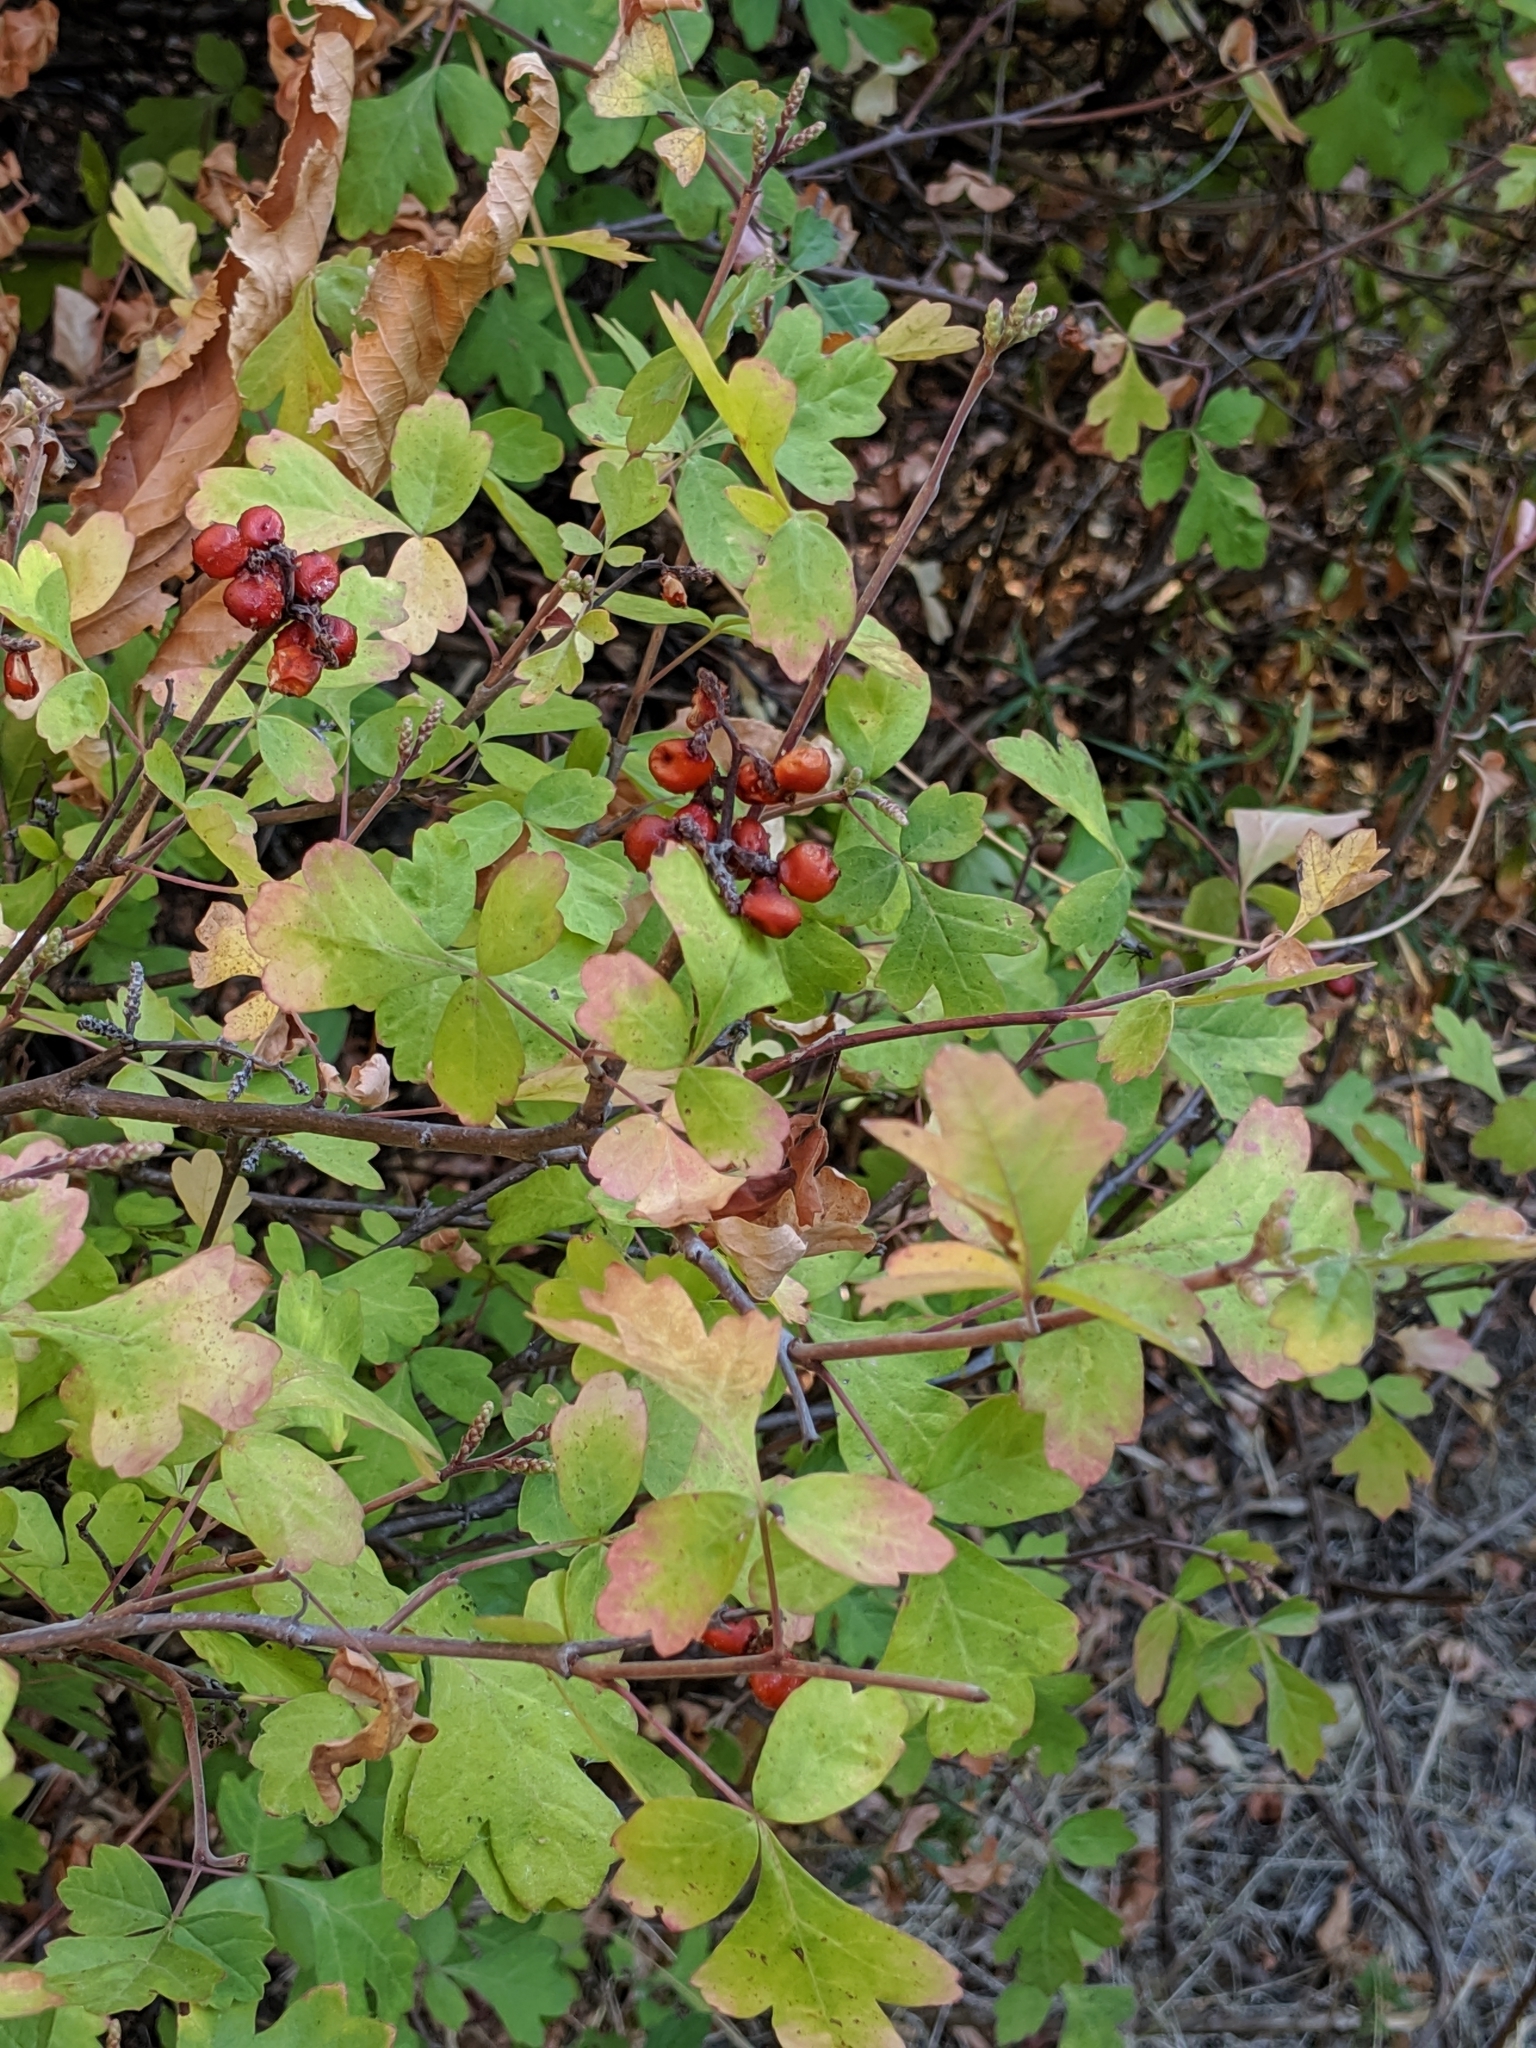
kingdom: Plantae
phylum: Tracheophyta
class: Magnoliopsida
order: Sapindales
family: Anacardiaceae
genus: Rhus
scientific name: Rhus aromatica
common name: Aromatic sumac
